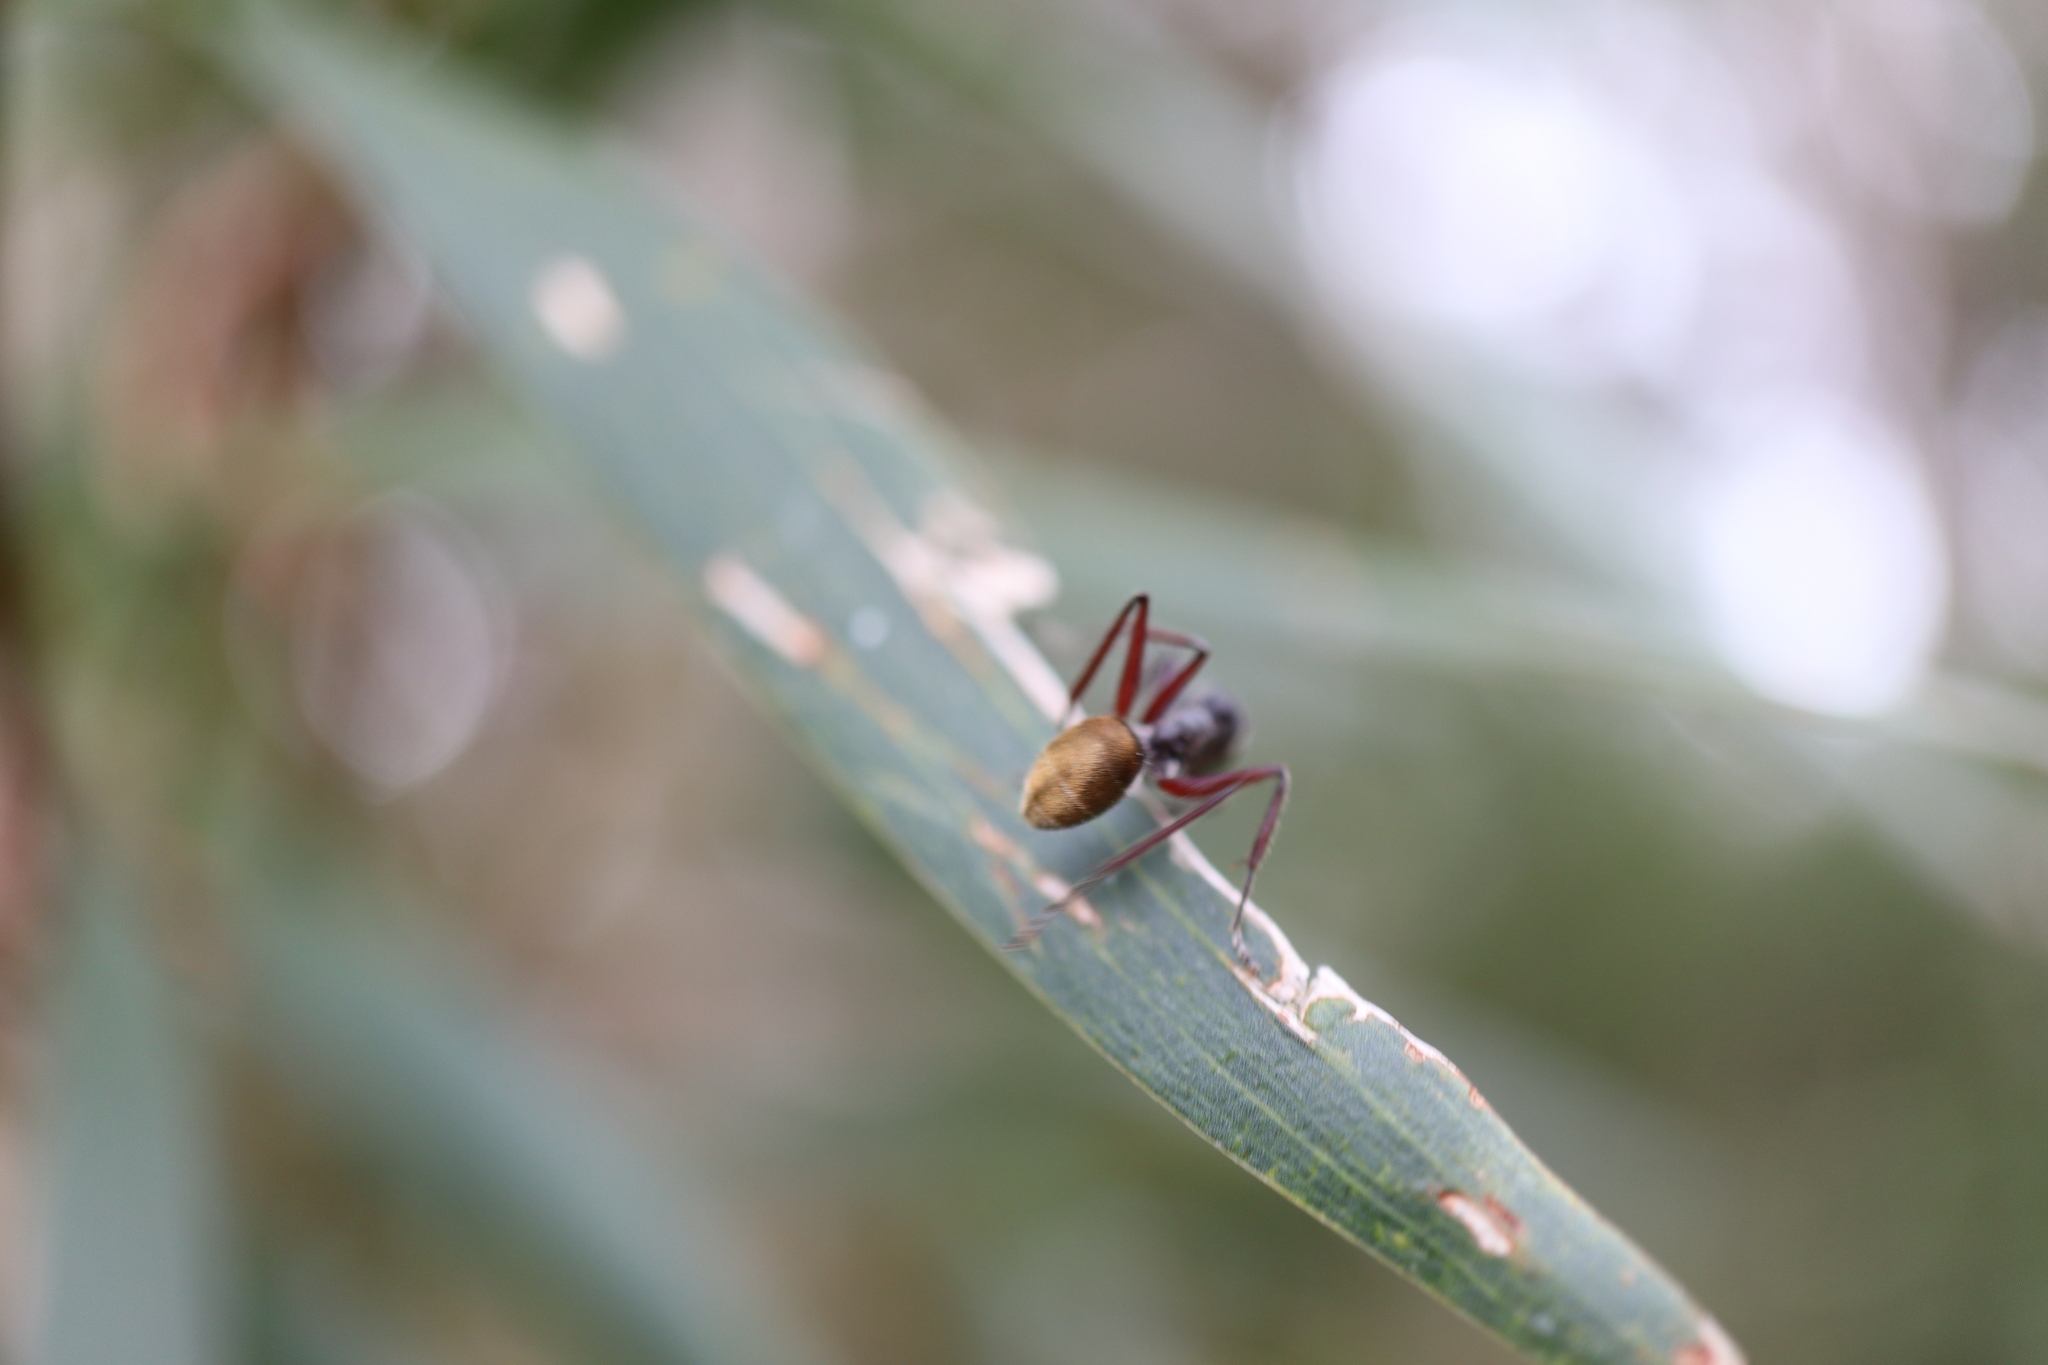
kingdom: Animalia
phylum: Arthropoda
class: Insecta
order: Hymenoptera
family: Formicidae
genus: Camponotus
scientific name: Camponotus suffusus
